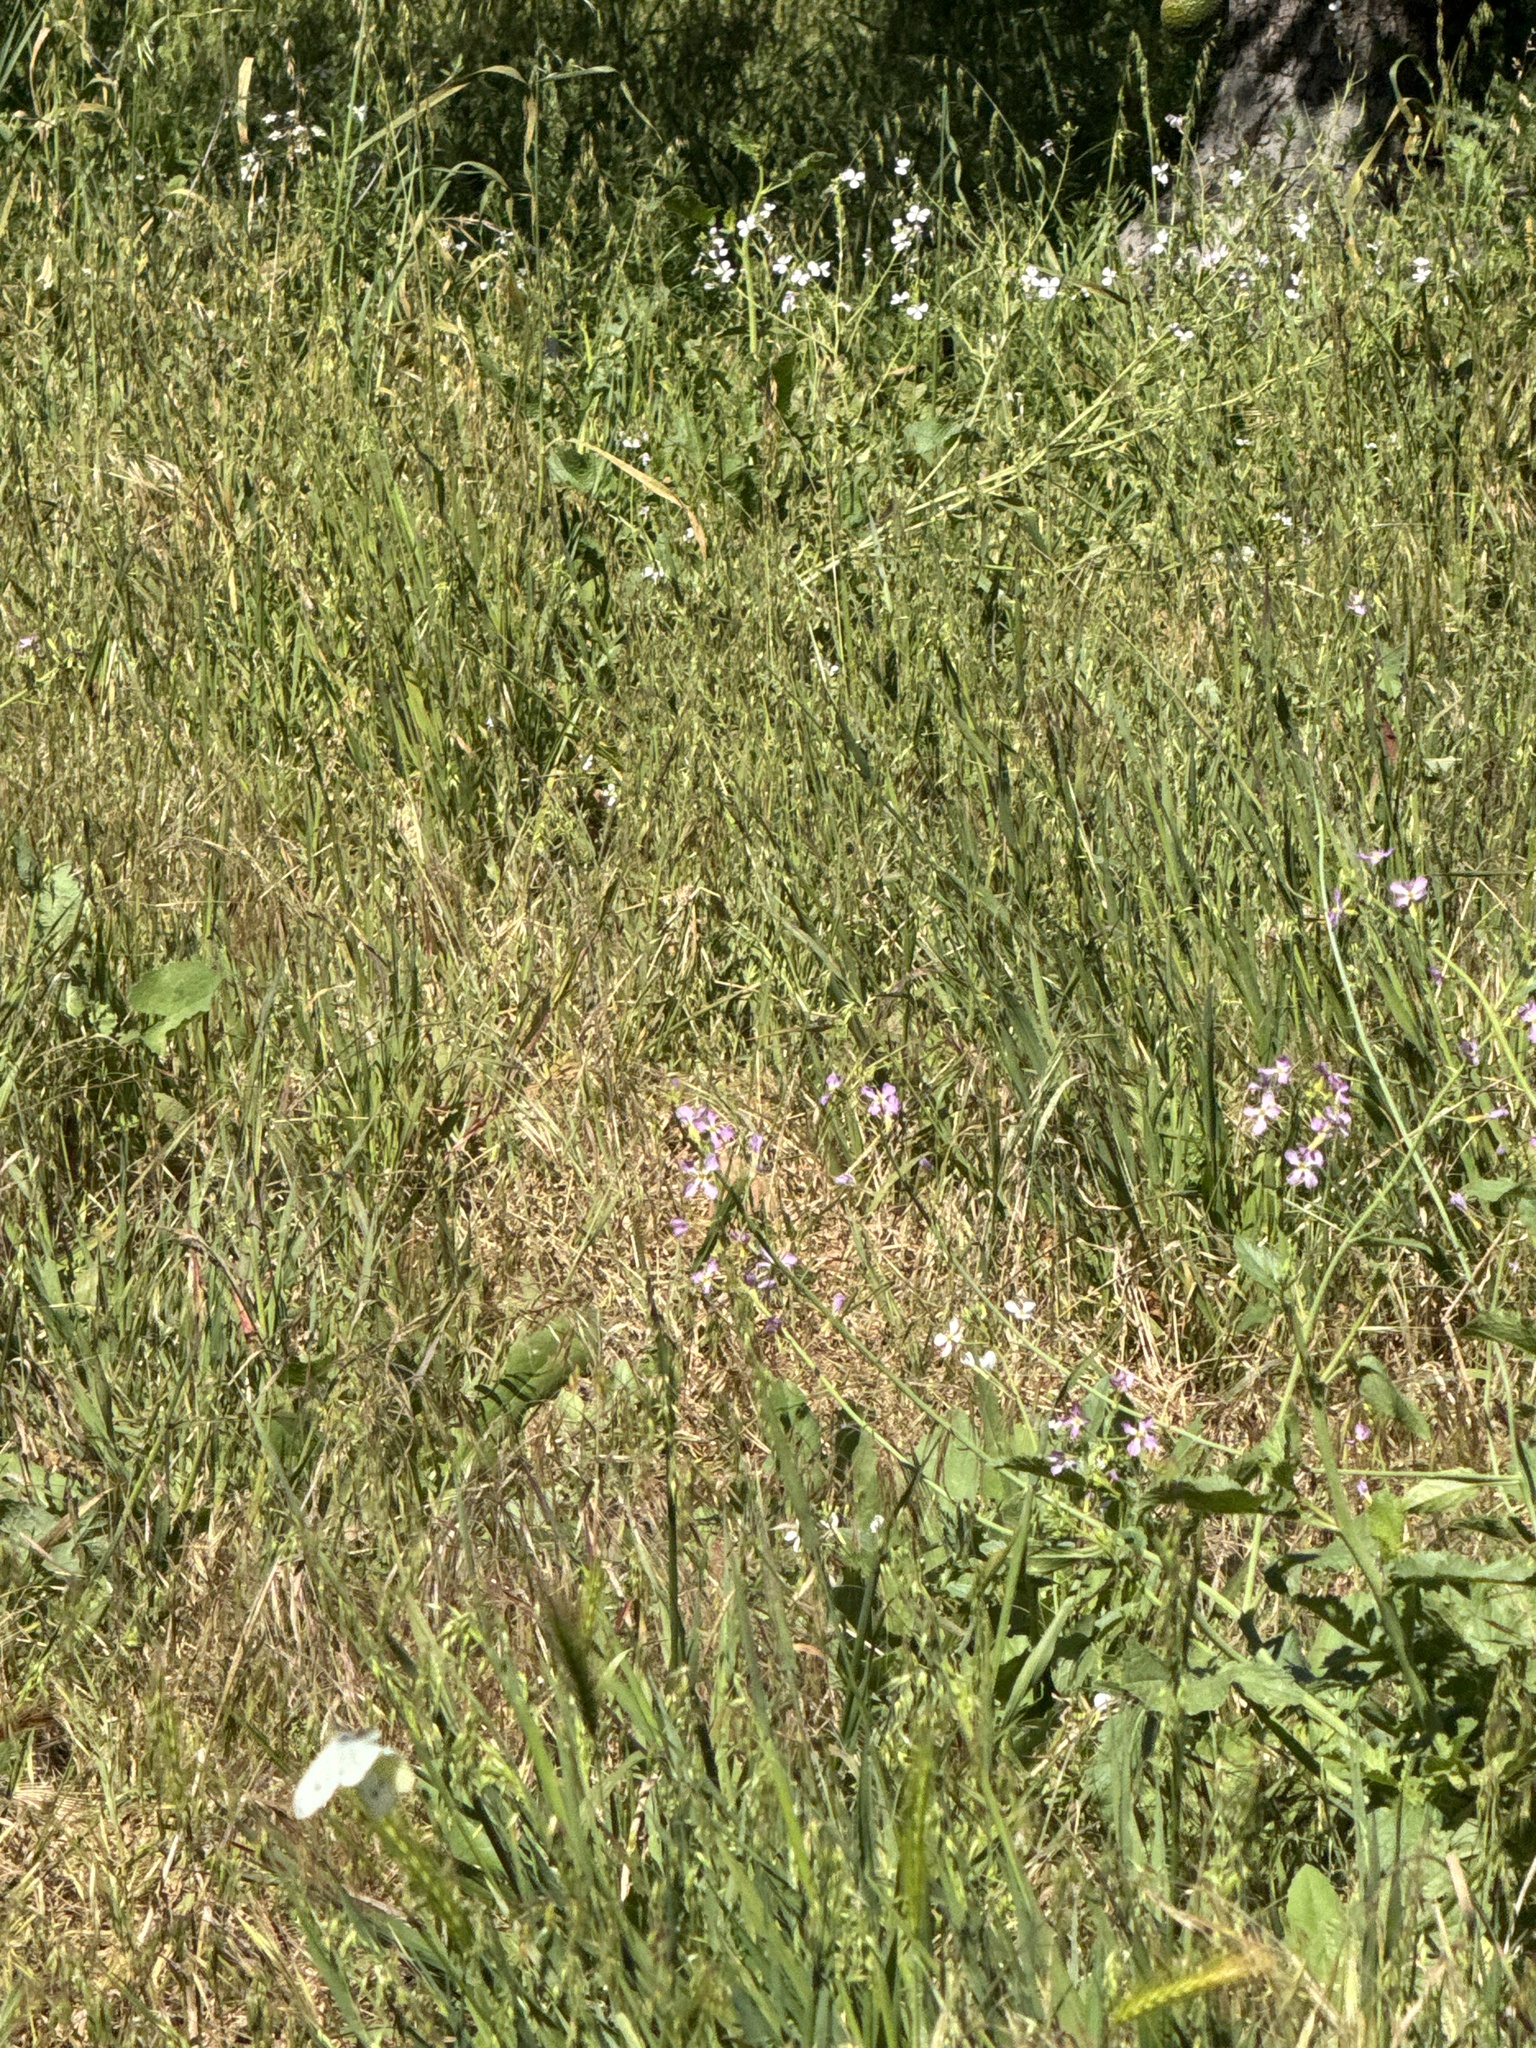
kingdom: Animalia
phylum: Arthropoda
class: Insecta
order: Lepidoptera
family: Pieridae
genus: Pieris
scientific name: Pieris rapae
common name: Small white
